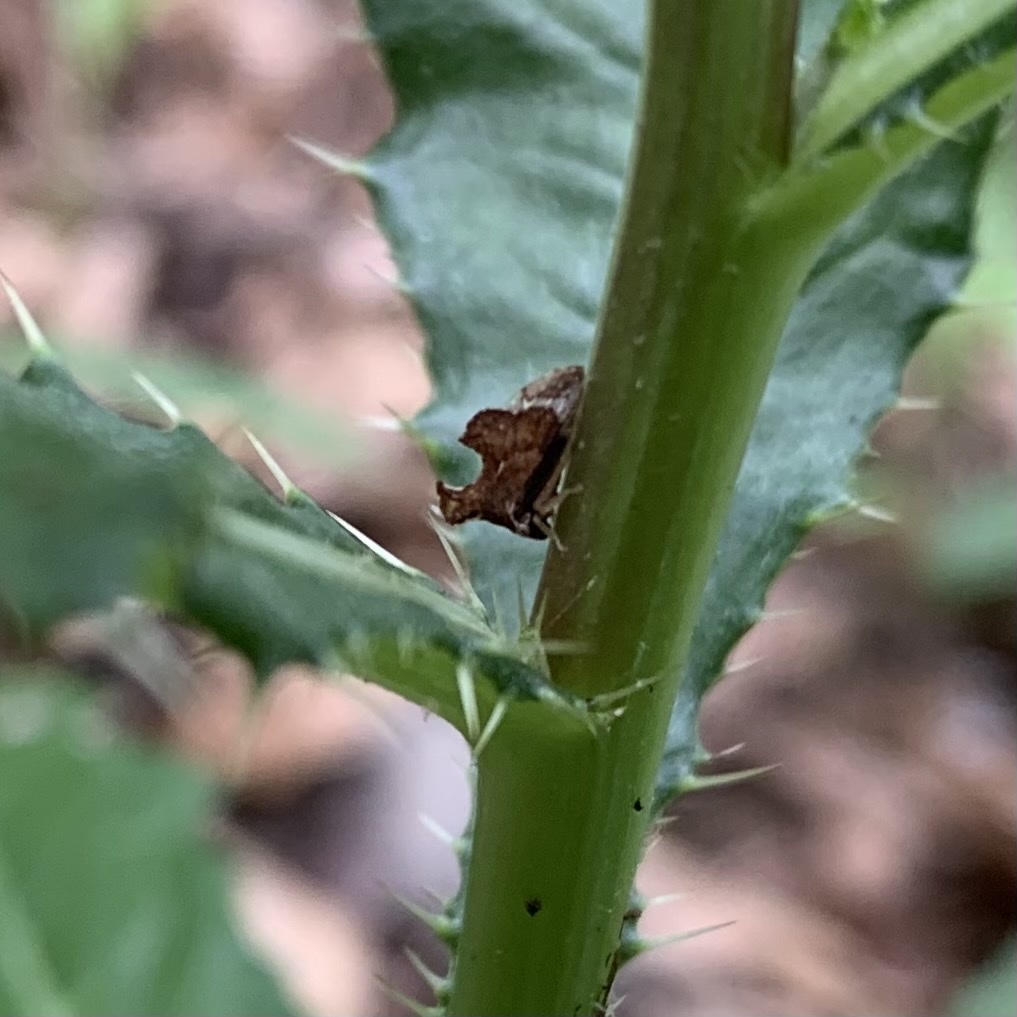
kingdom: Animalia
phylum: Arthropoda
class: Insecta
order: Hemiptera
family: Membracidae
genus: Entylia
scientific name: Entylia carinata
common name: Keeled treehopper
